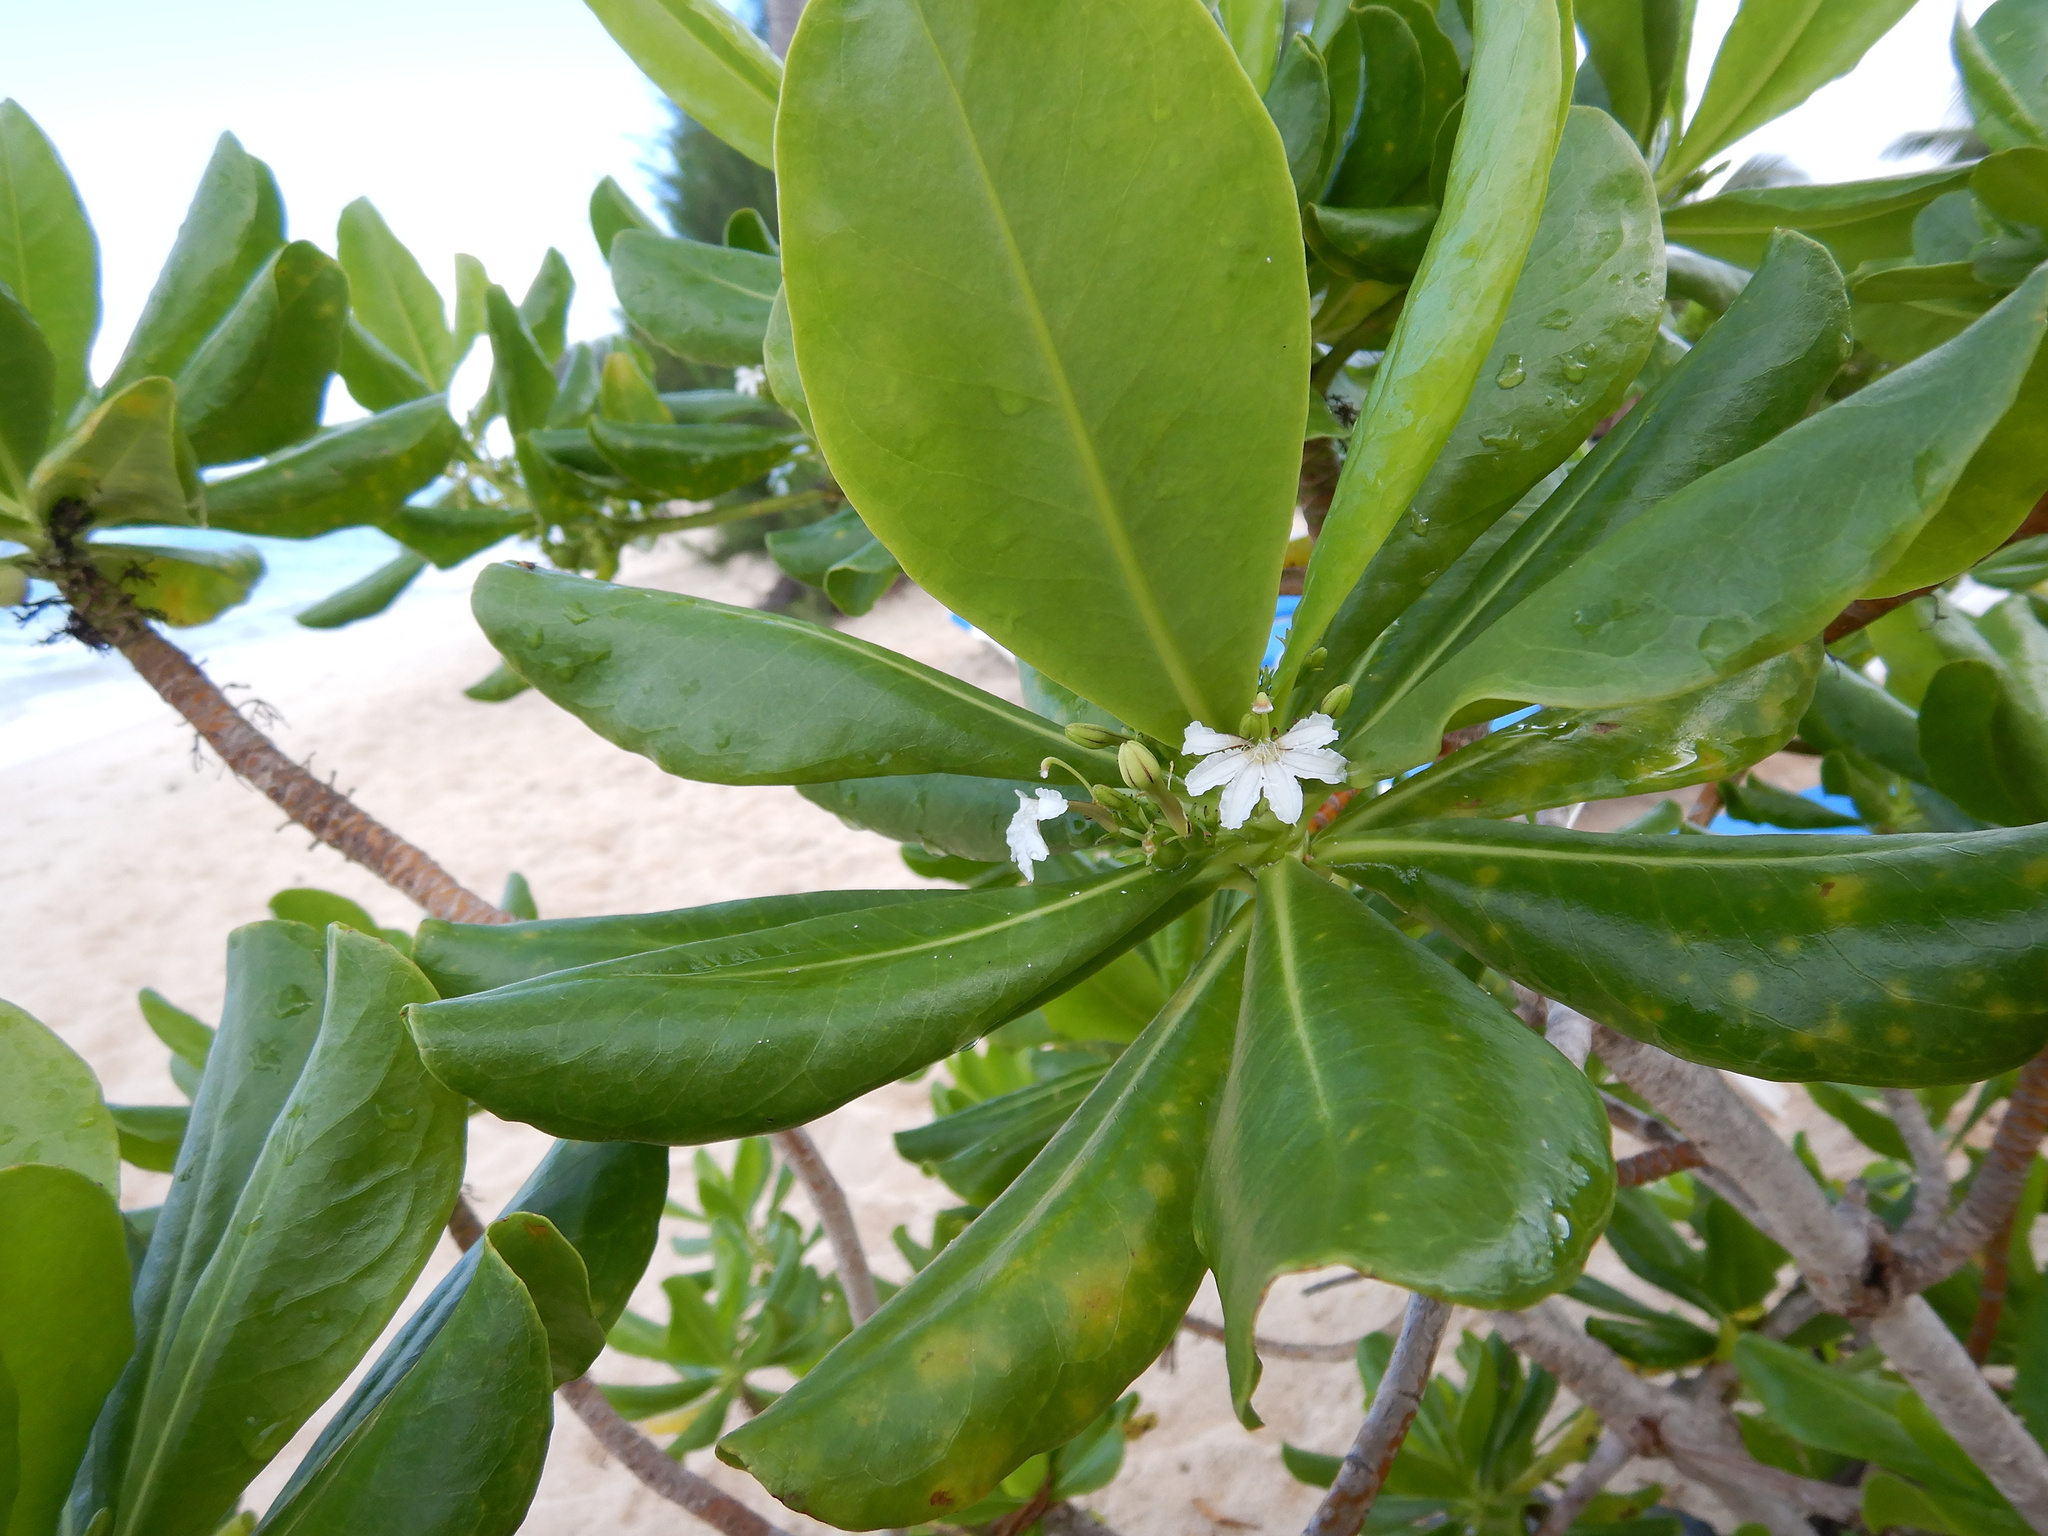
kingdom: Plantae
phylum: Tracheophyta
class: Magnoliopsida
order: Asterales
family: Goodeniaceae
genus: Scaevola
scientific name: Scaevola taccada
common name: Sea lettucetree
